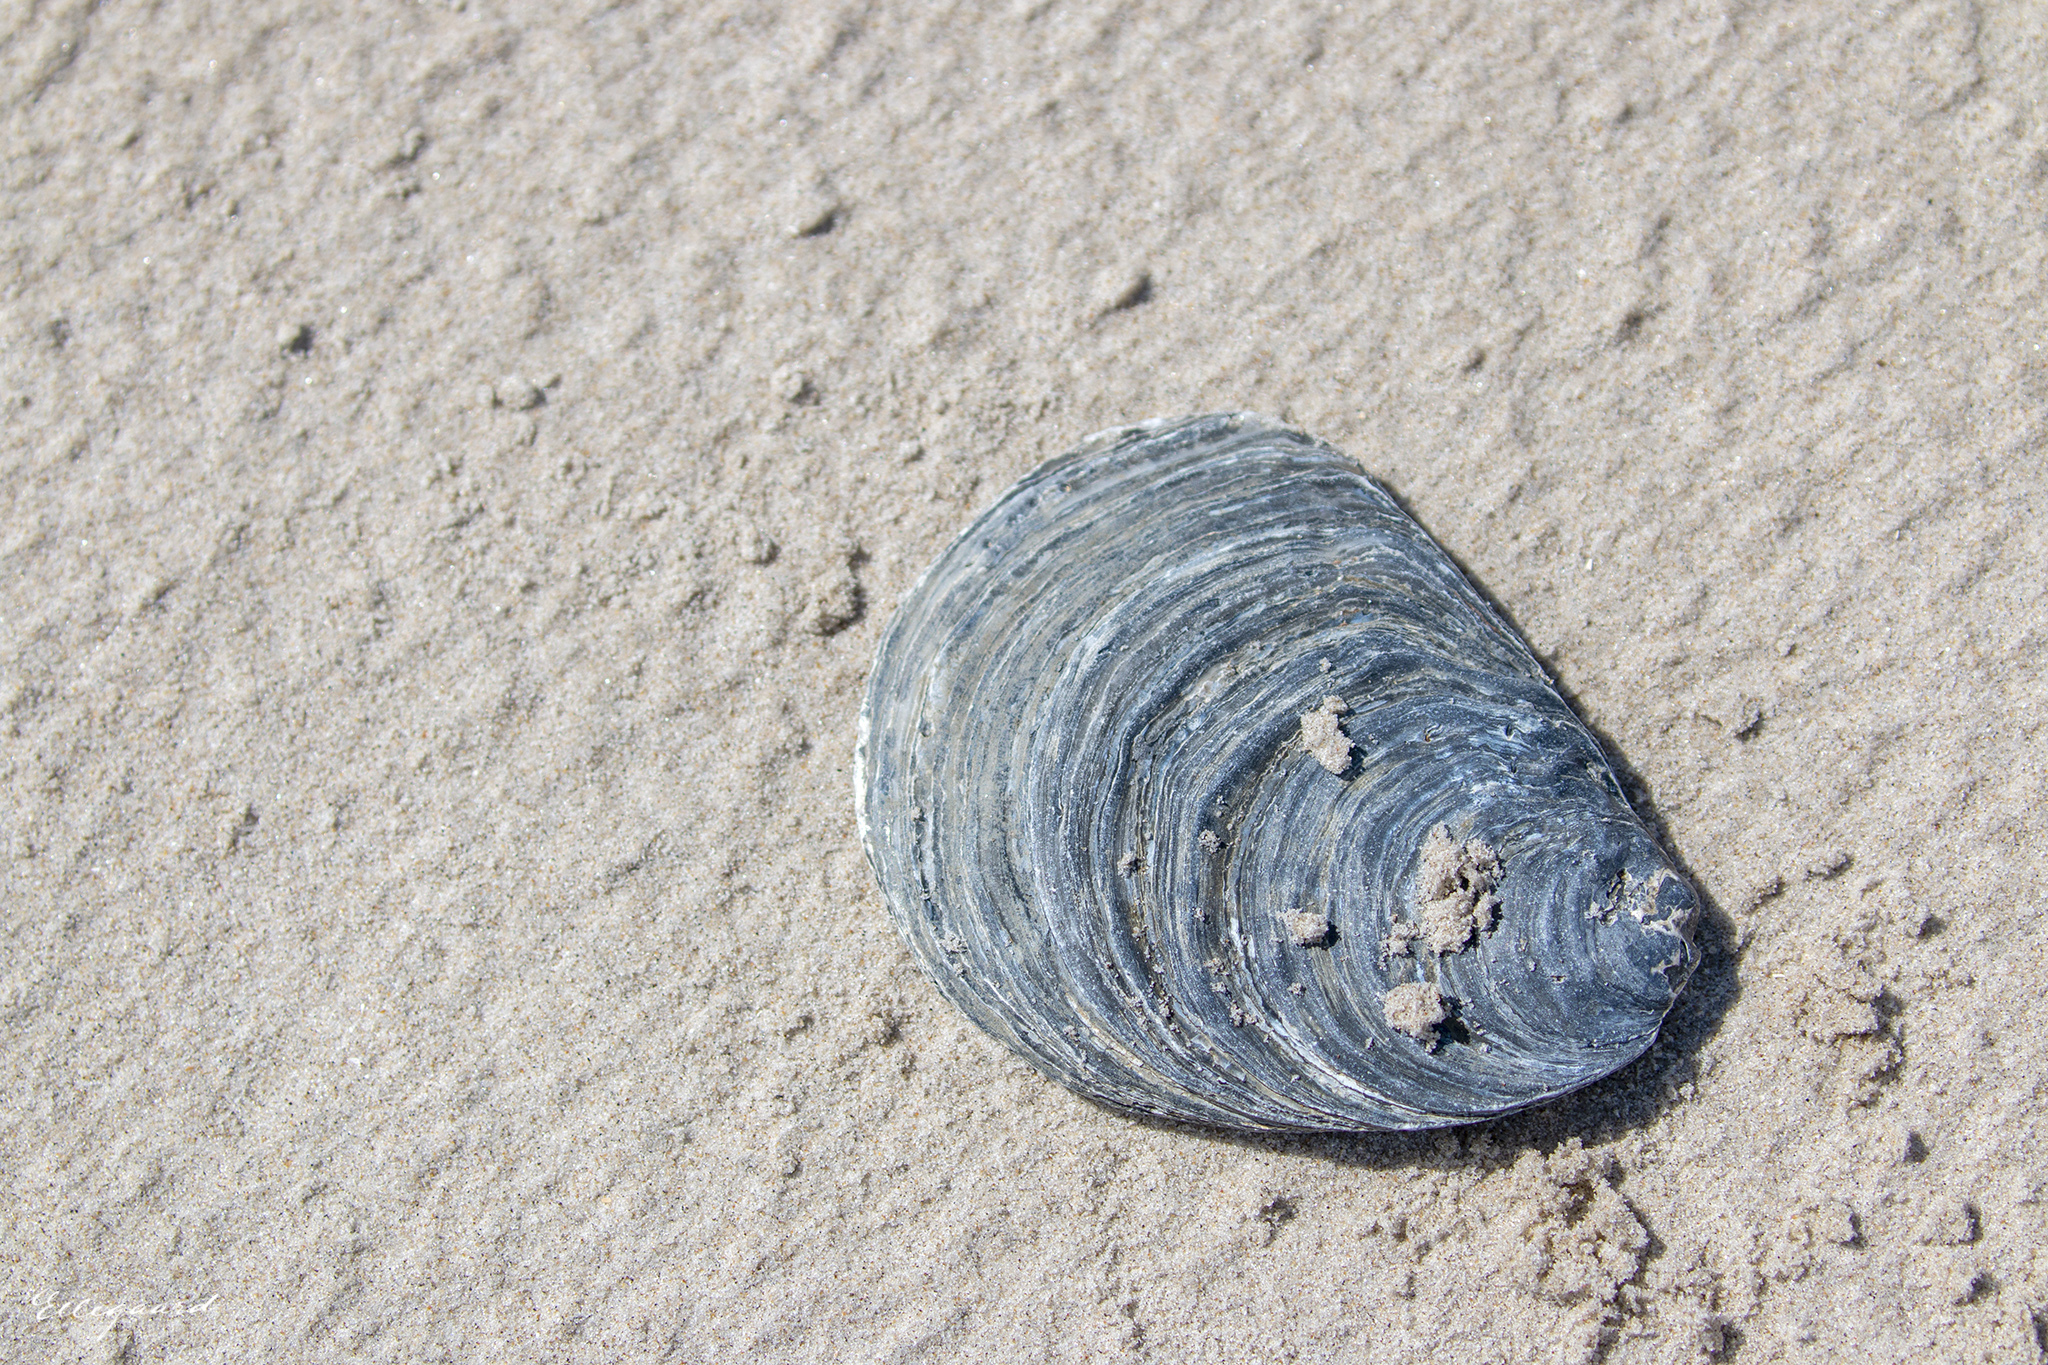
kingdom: Animalia
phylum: Mollusca
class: Bivalvia
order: Ostreida
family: Ostreidae
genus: Ostrea
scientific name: Ostrea edulis
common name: Flat oyster
